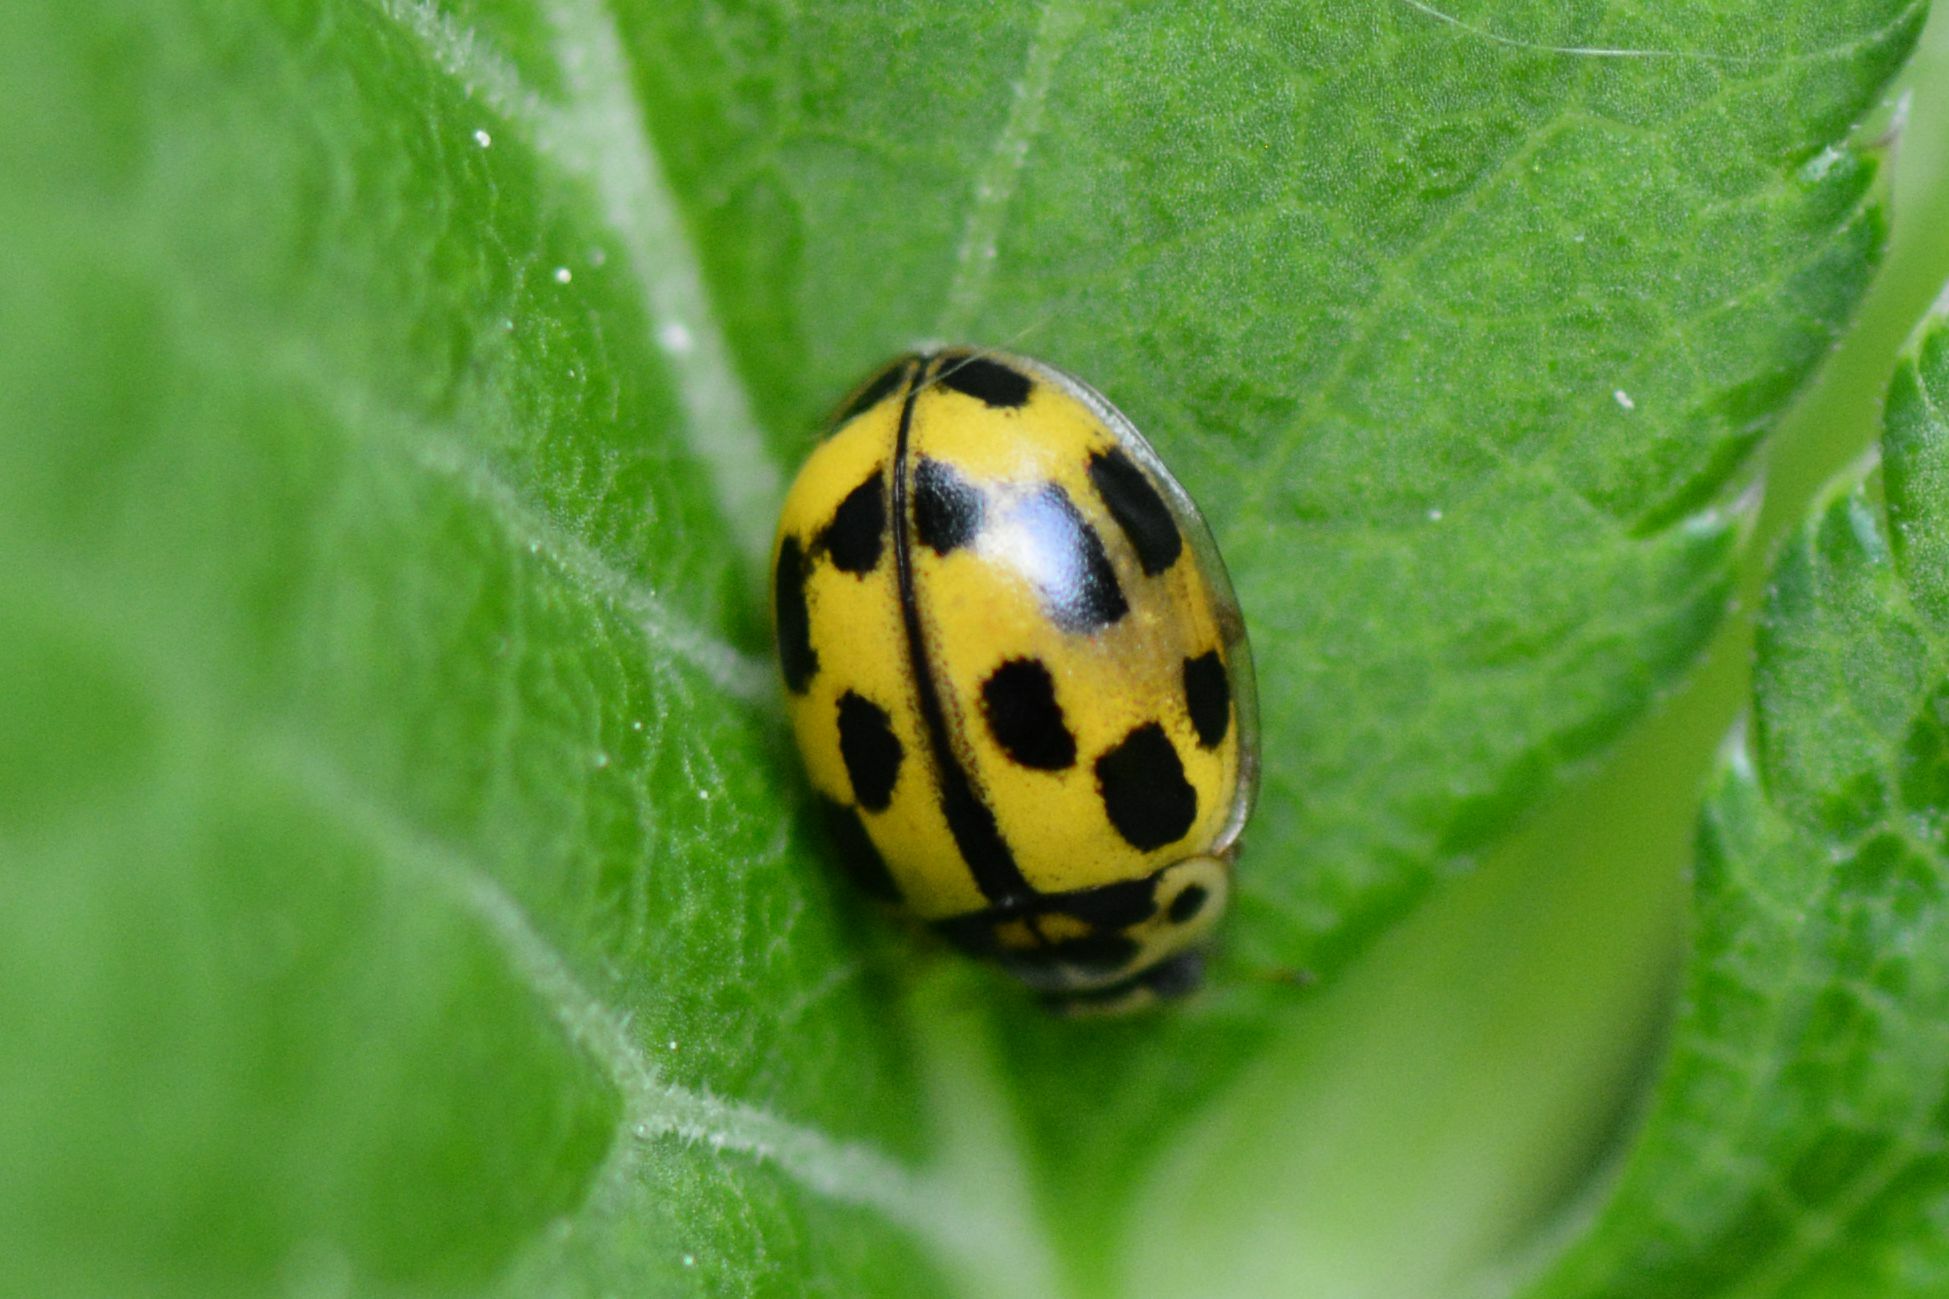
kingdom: Animalia
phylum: Arthropoda
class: Insecta
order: Coleoptera
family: Coccinellidae
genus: Propylaea
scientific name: Propylaea quatuordecimpunctata
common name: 14-spotted ladybird beetle
